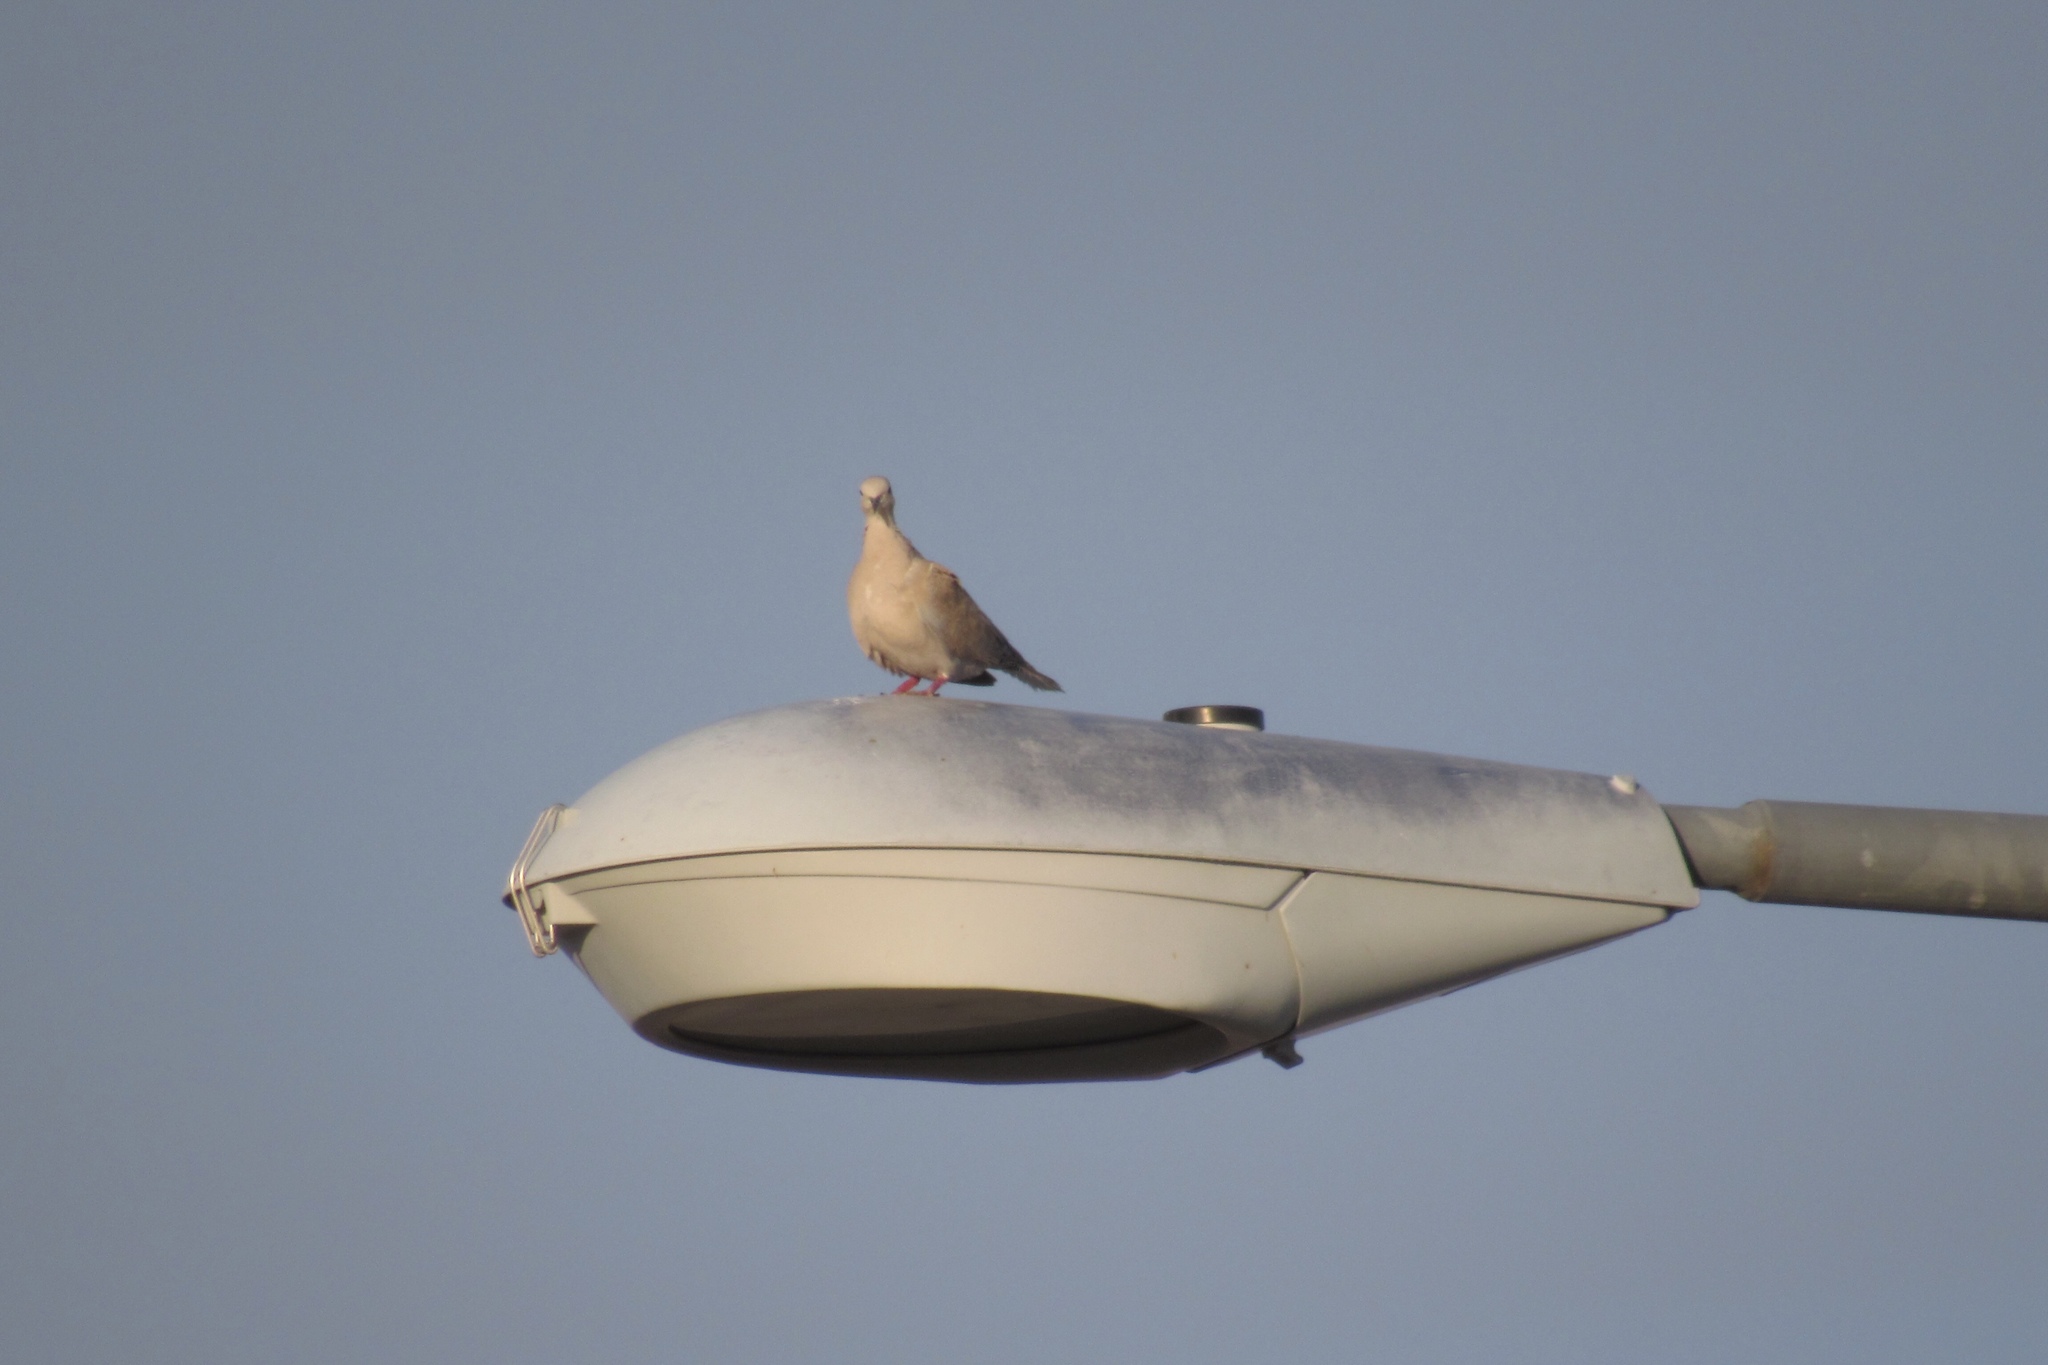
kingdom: Animalia
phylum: Chordata
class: Aves
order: Columbiformes
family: Columbidae
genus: Streptopelia
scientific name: Streptopelia decaocto
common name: Eurasian collared dove
